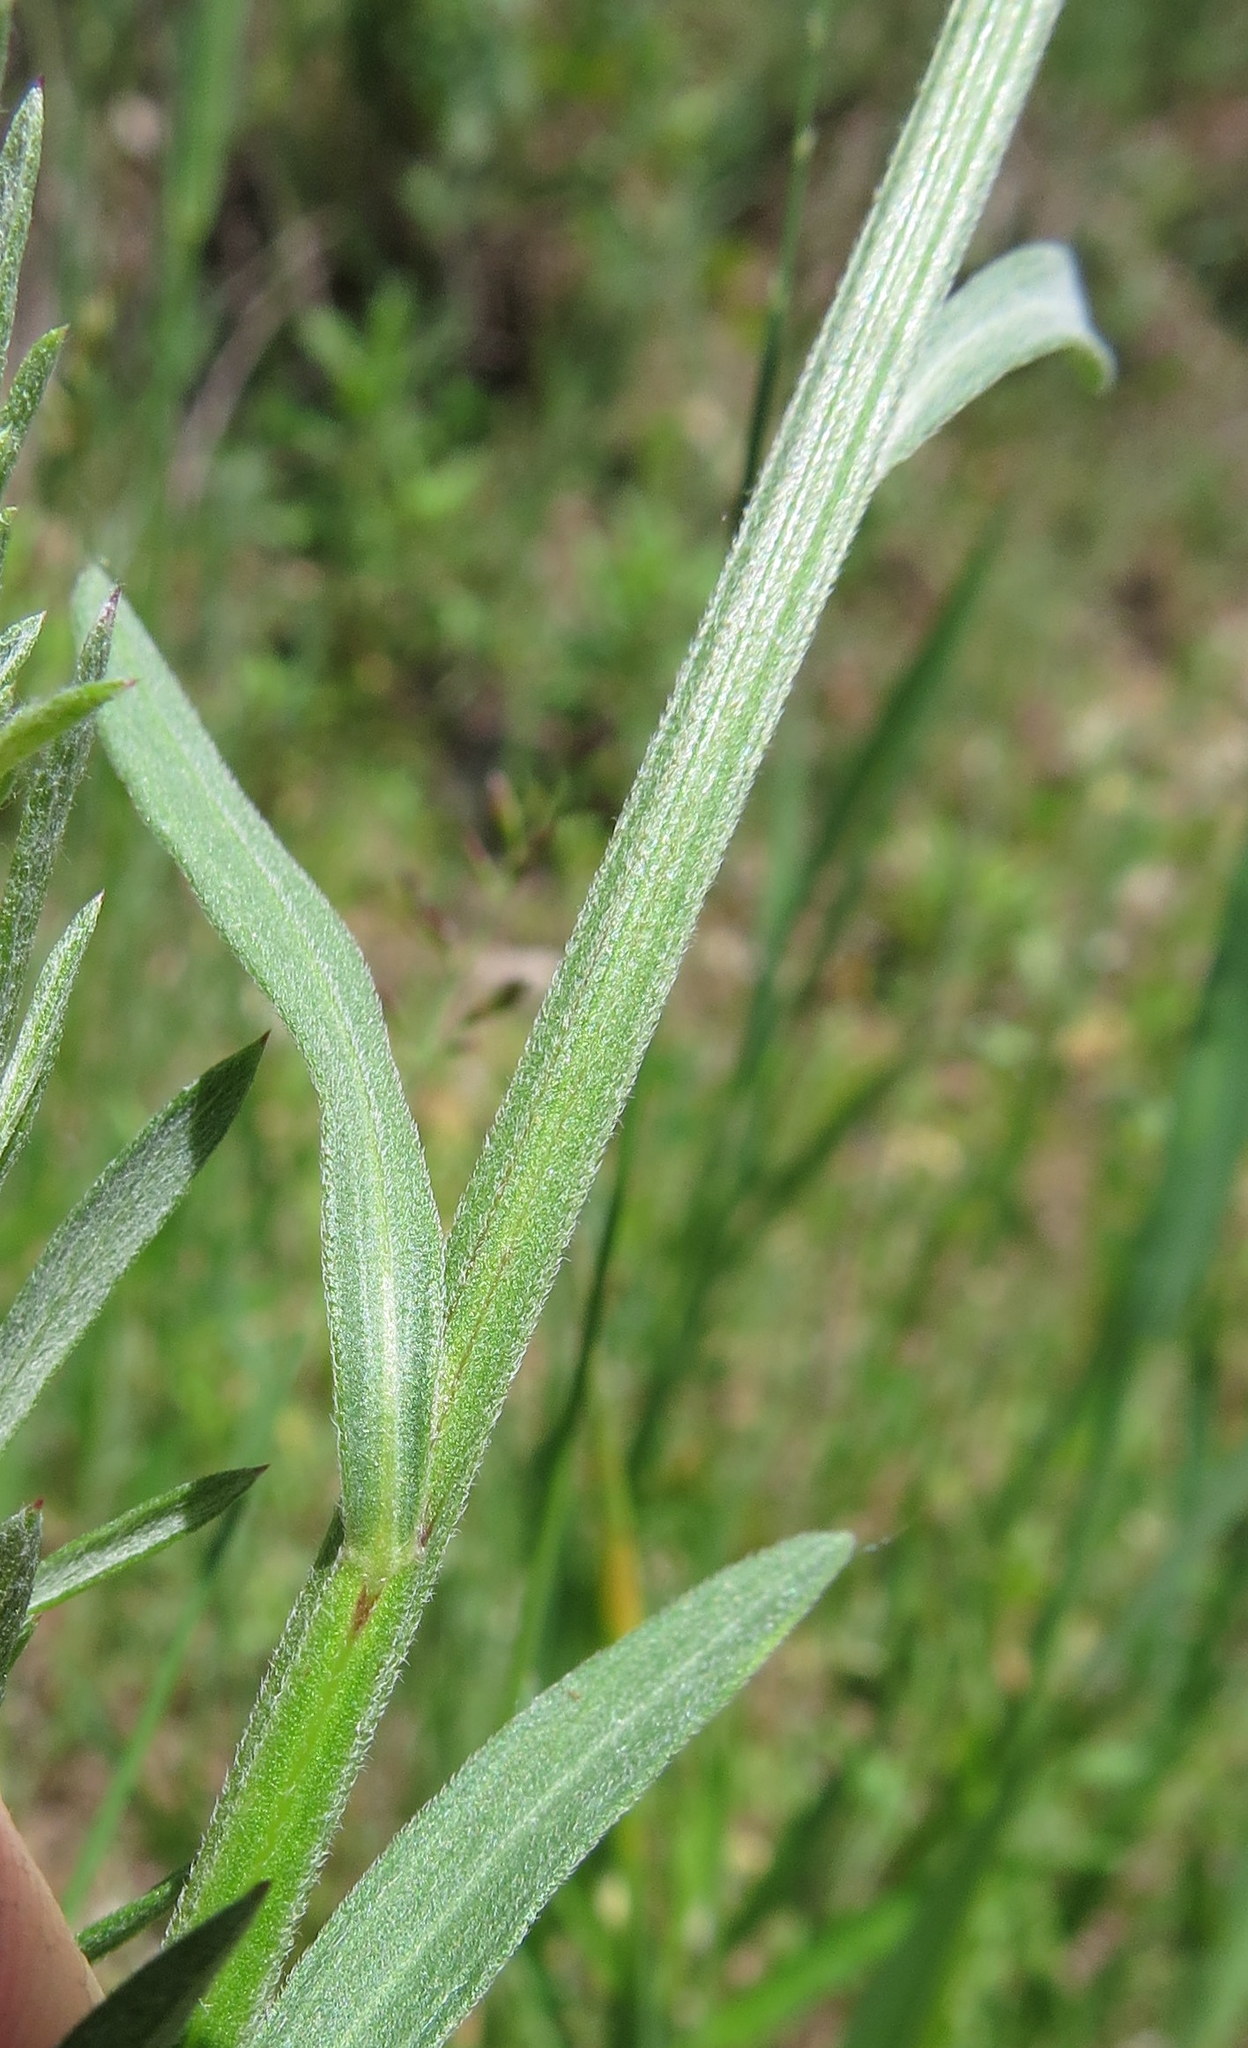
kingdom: Plantae
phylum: Tracheophyta
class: Magnoliopsida
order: Asterales
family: Asteraceae
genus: Erigeron
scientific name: Erigeron strigosus
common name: Common eastern fleabane
